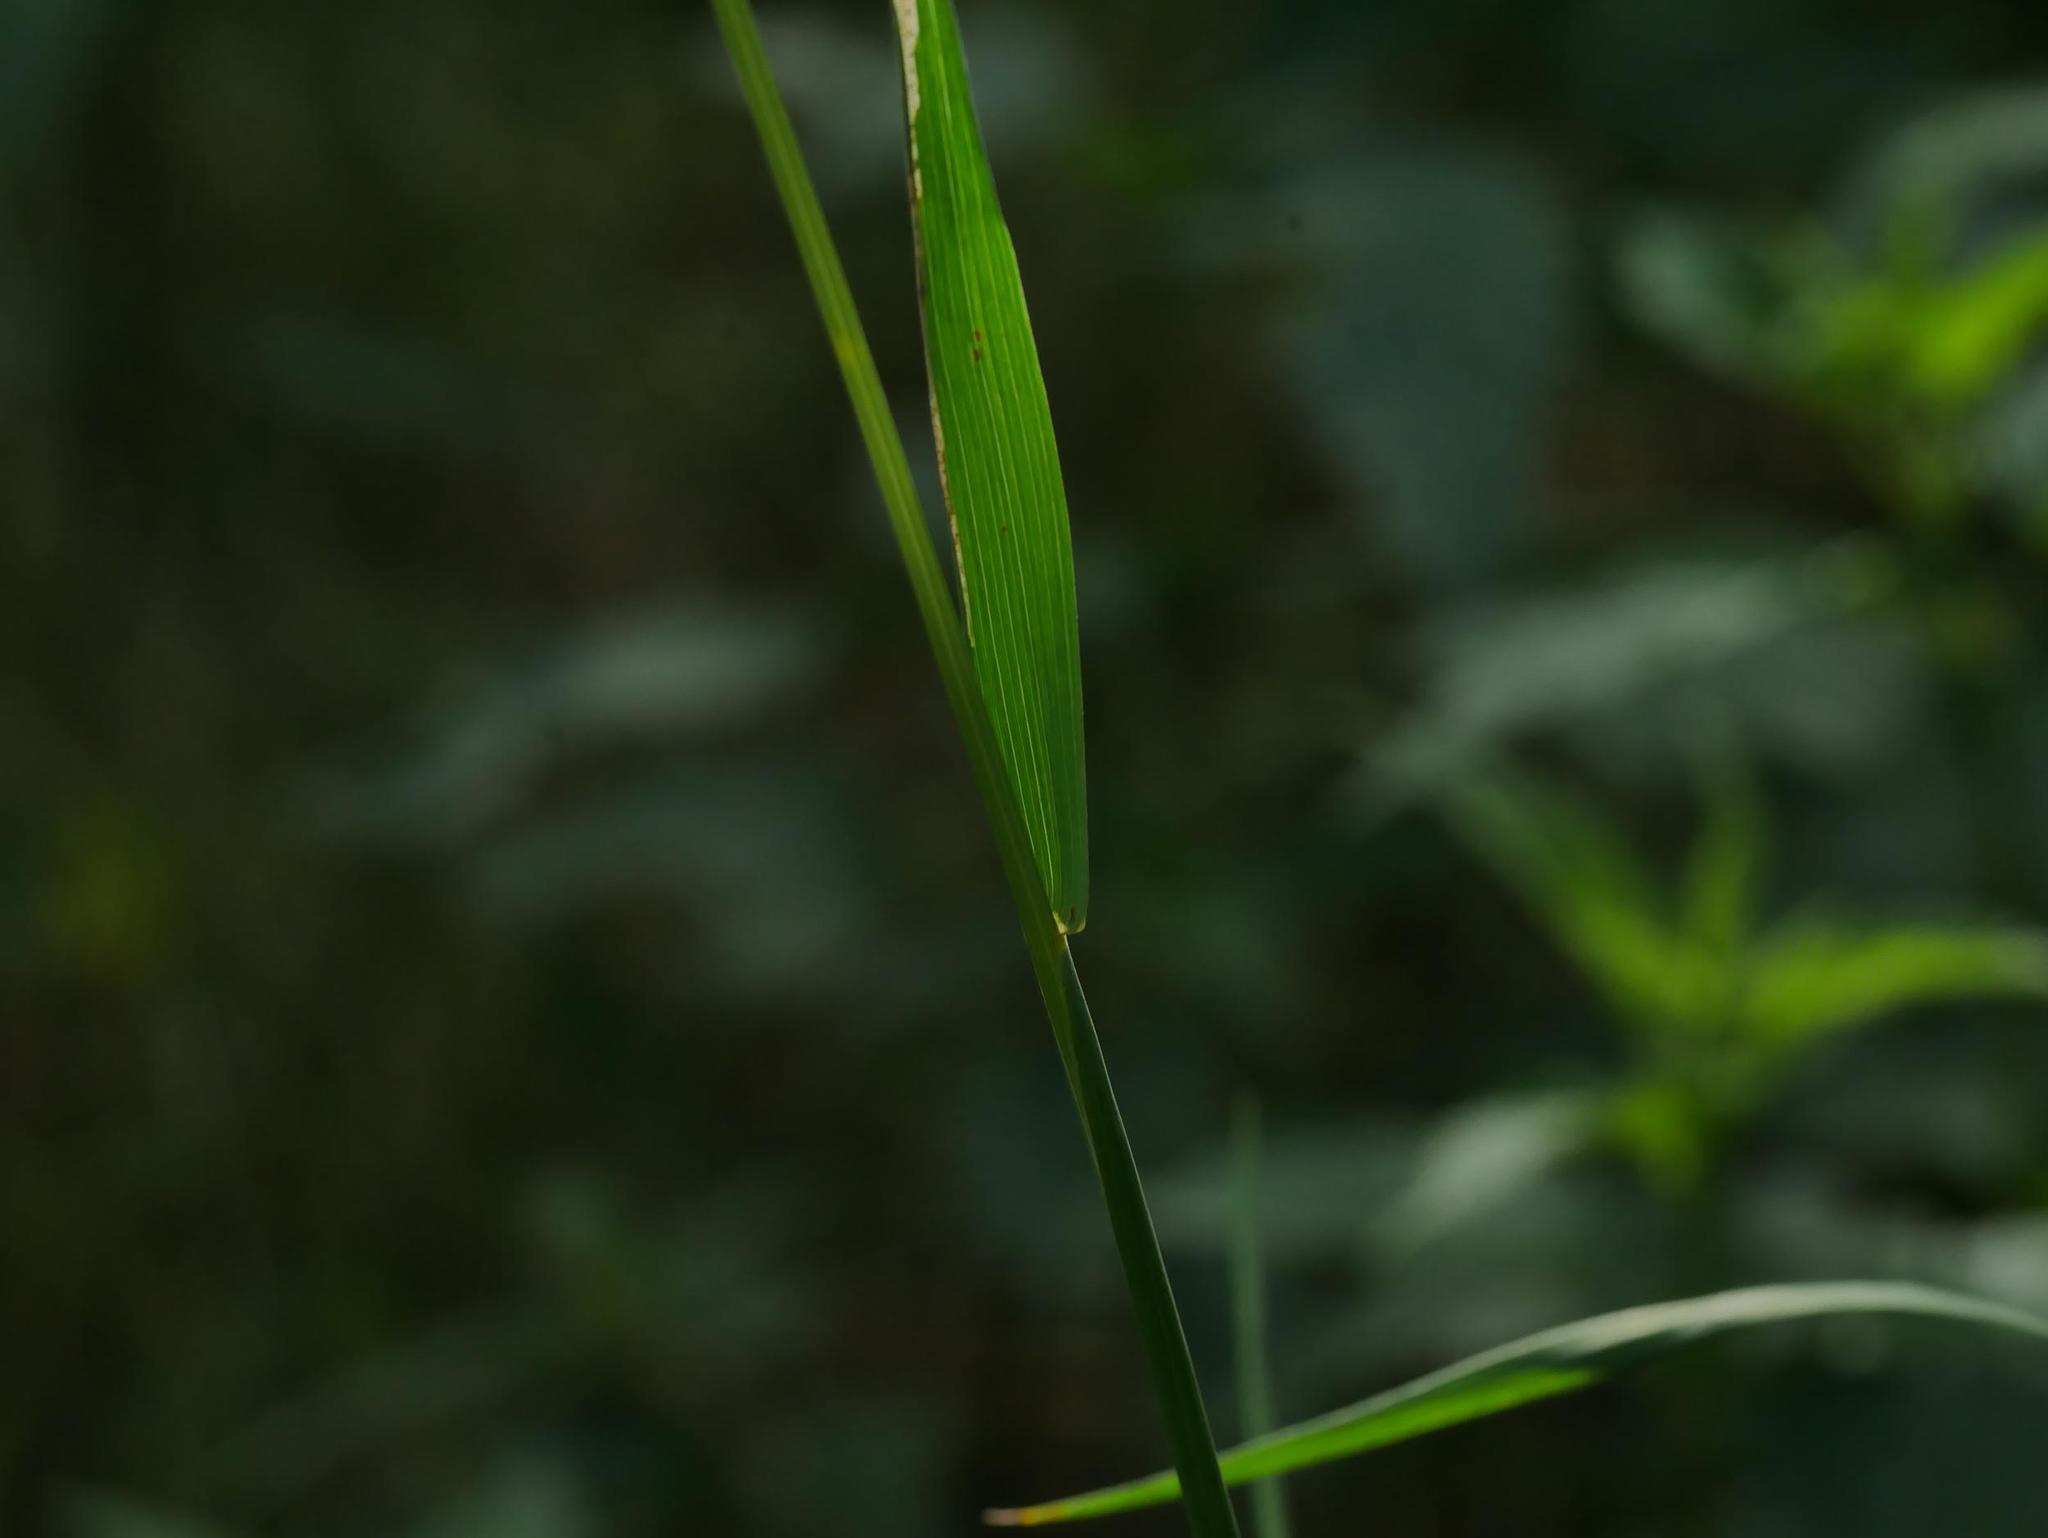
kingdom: Plantae
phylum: Tracheophyta
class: Liliopsida
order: Poales
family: Poaceae
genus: Arrhenatherum
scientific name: Arrhenatherum elatius
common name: Tall oatgrass
